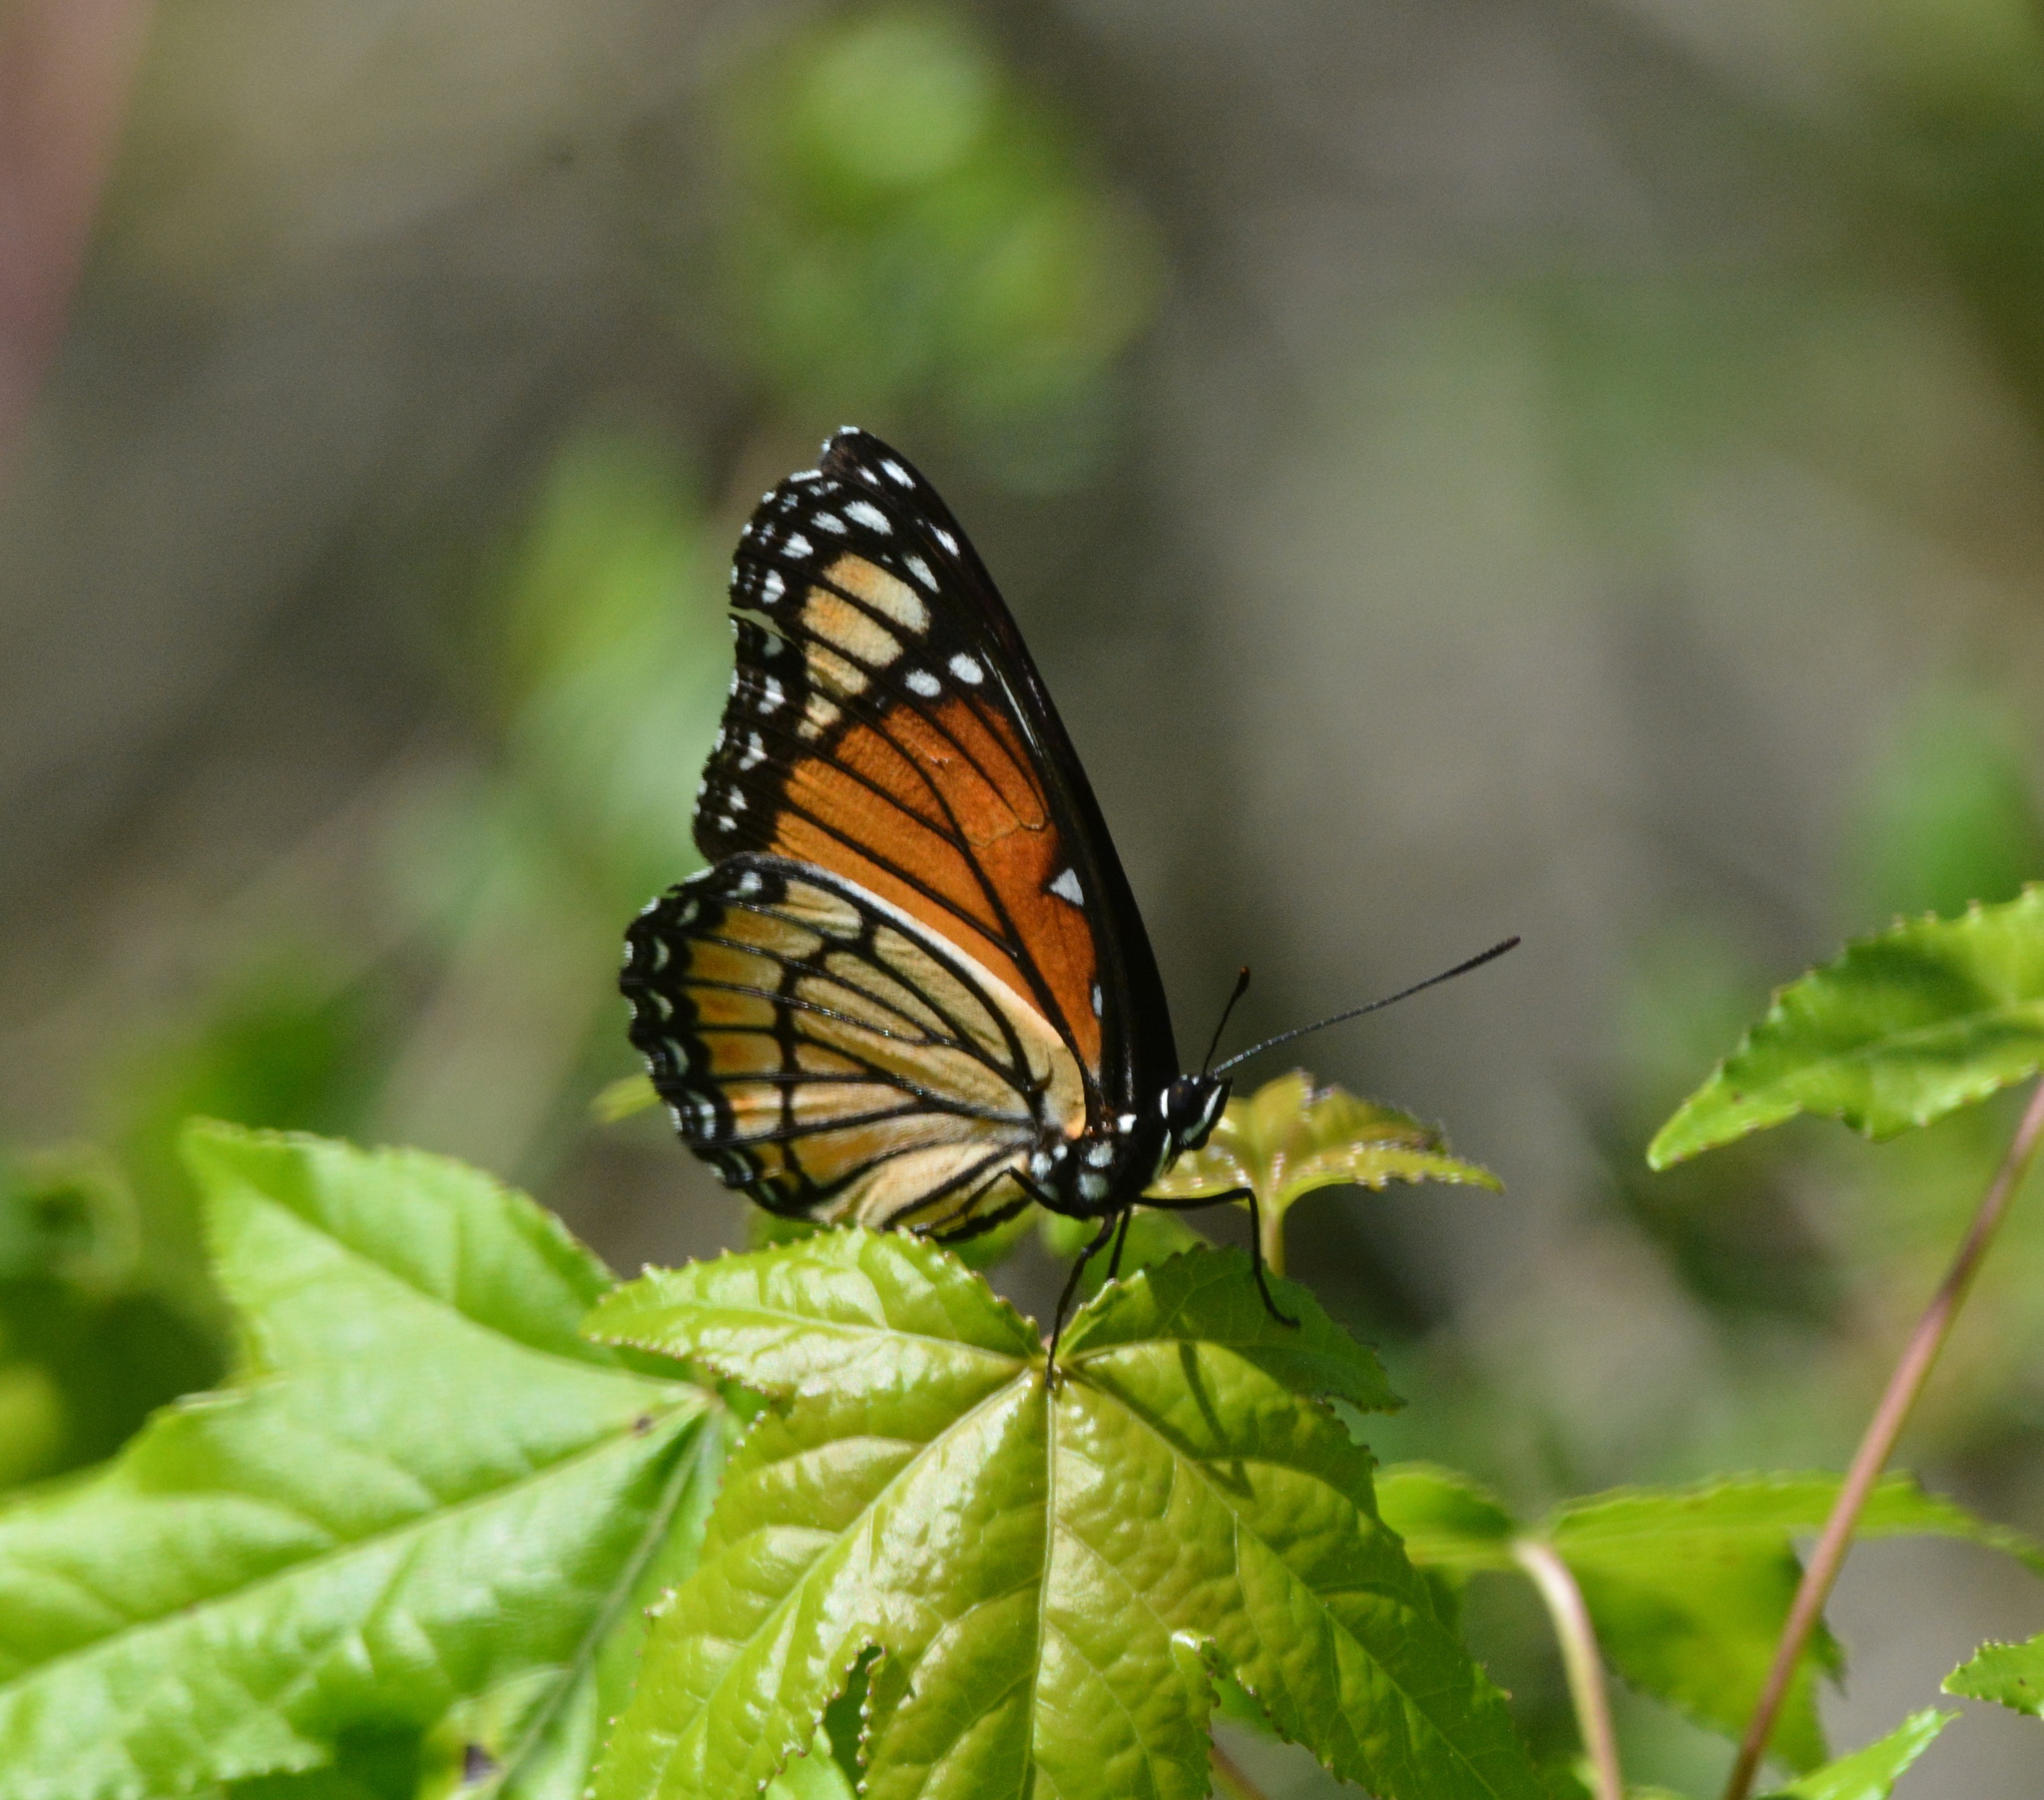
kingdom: Animalia
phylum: Arthropoda
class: Insecta
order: Lepidoptera
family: Nymphalidae
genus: Limenitis
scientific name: Limenitis archippus
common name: Viceroy
